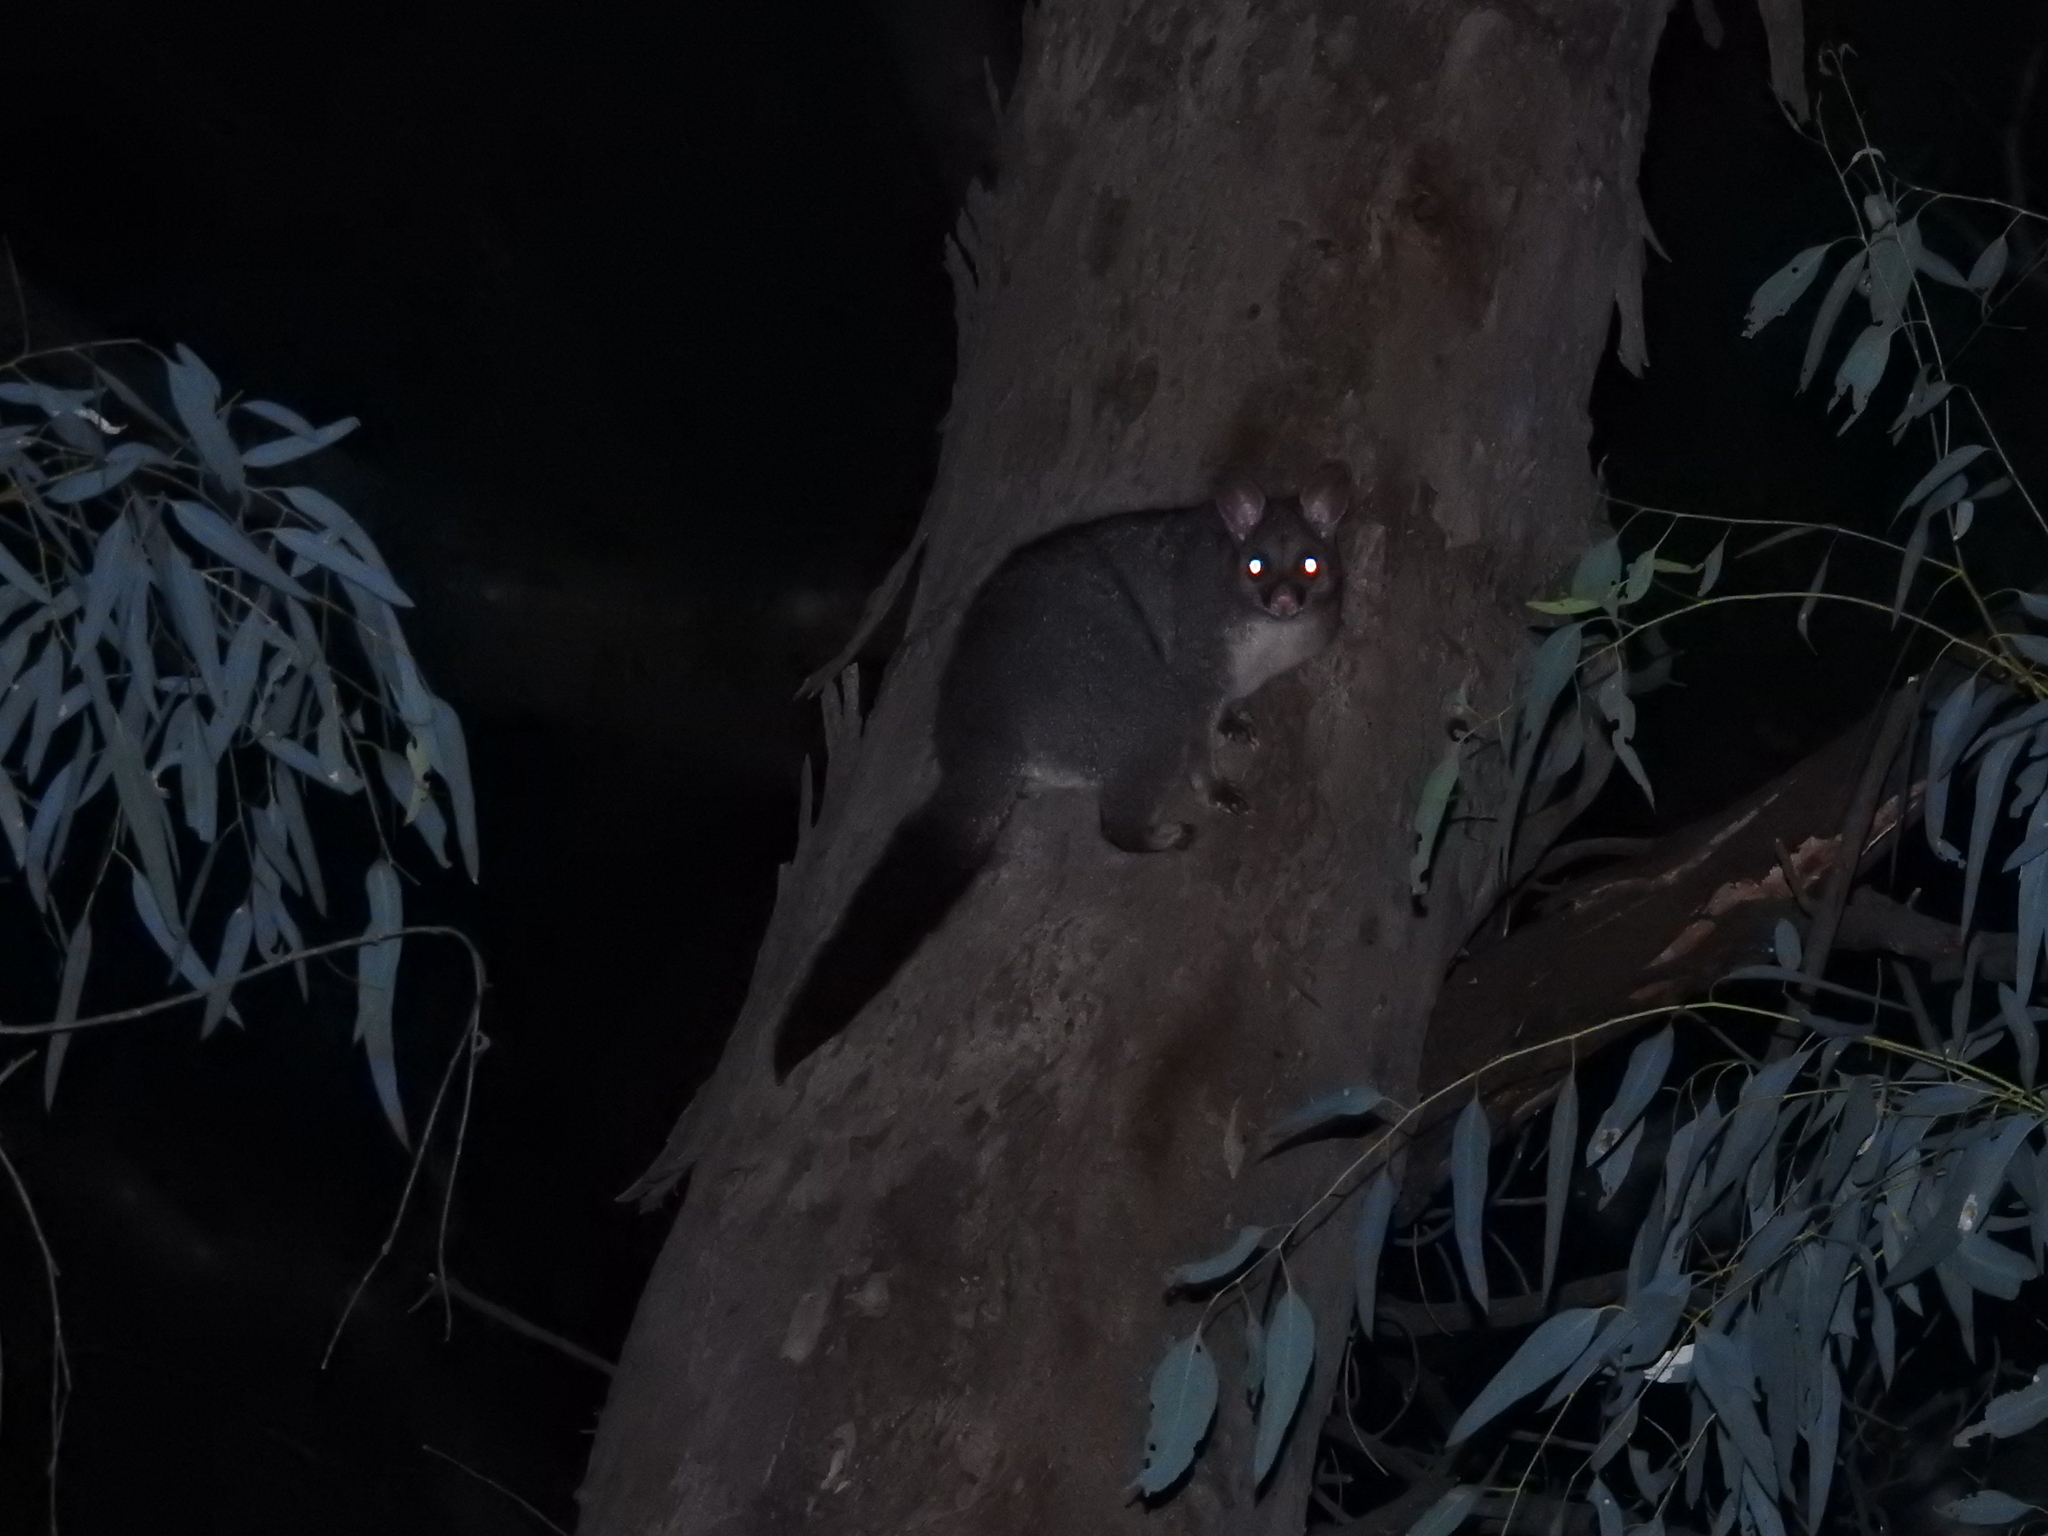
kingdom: Animalia
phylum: Chordata
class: Mammalia
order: Diprotodontia
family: Phalangeridae
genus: Trichosurus
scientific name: Trichosurus vulpecula
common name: Common brushtail
